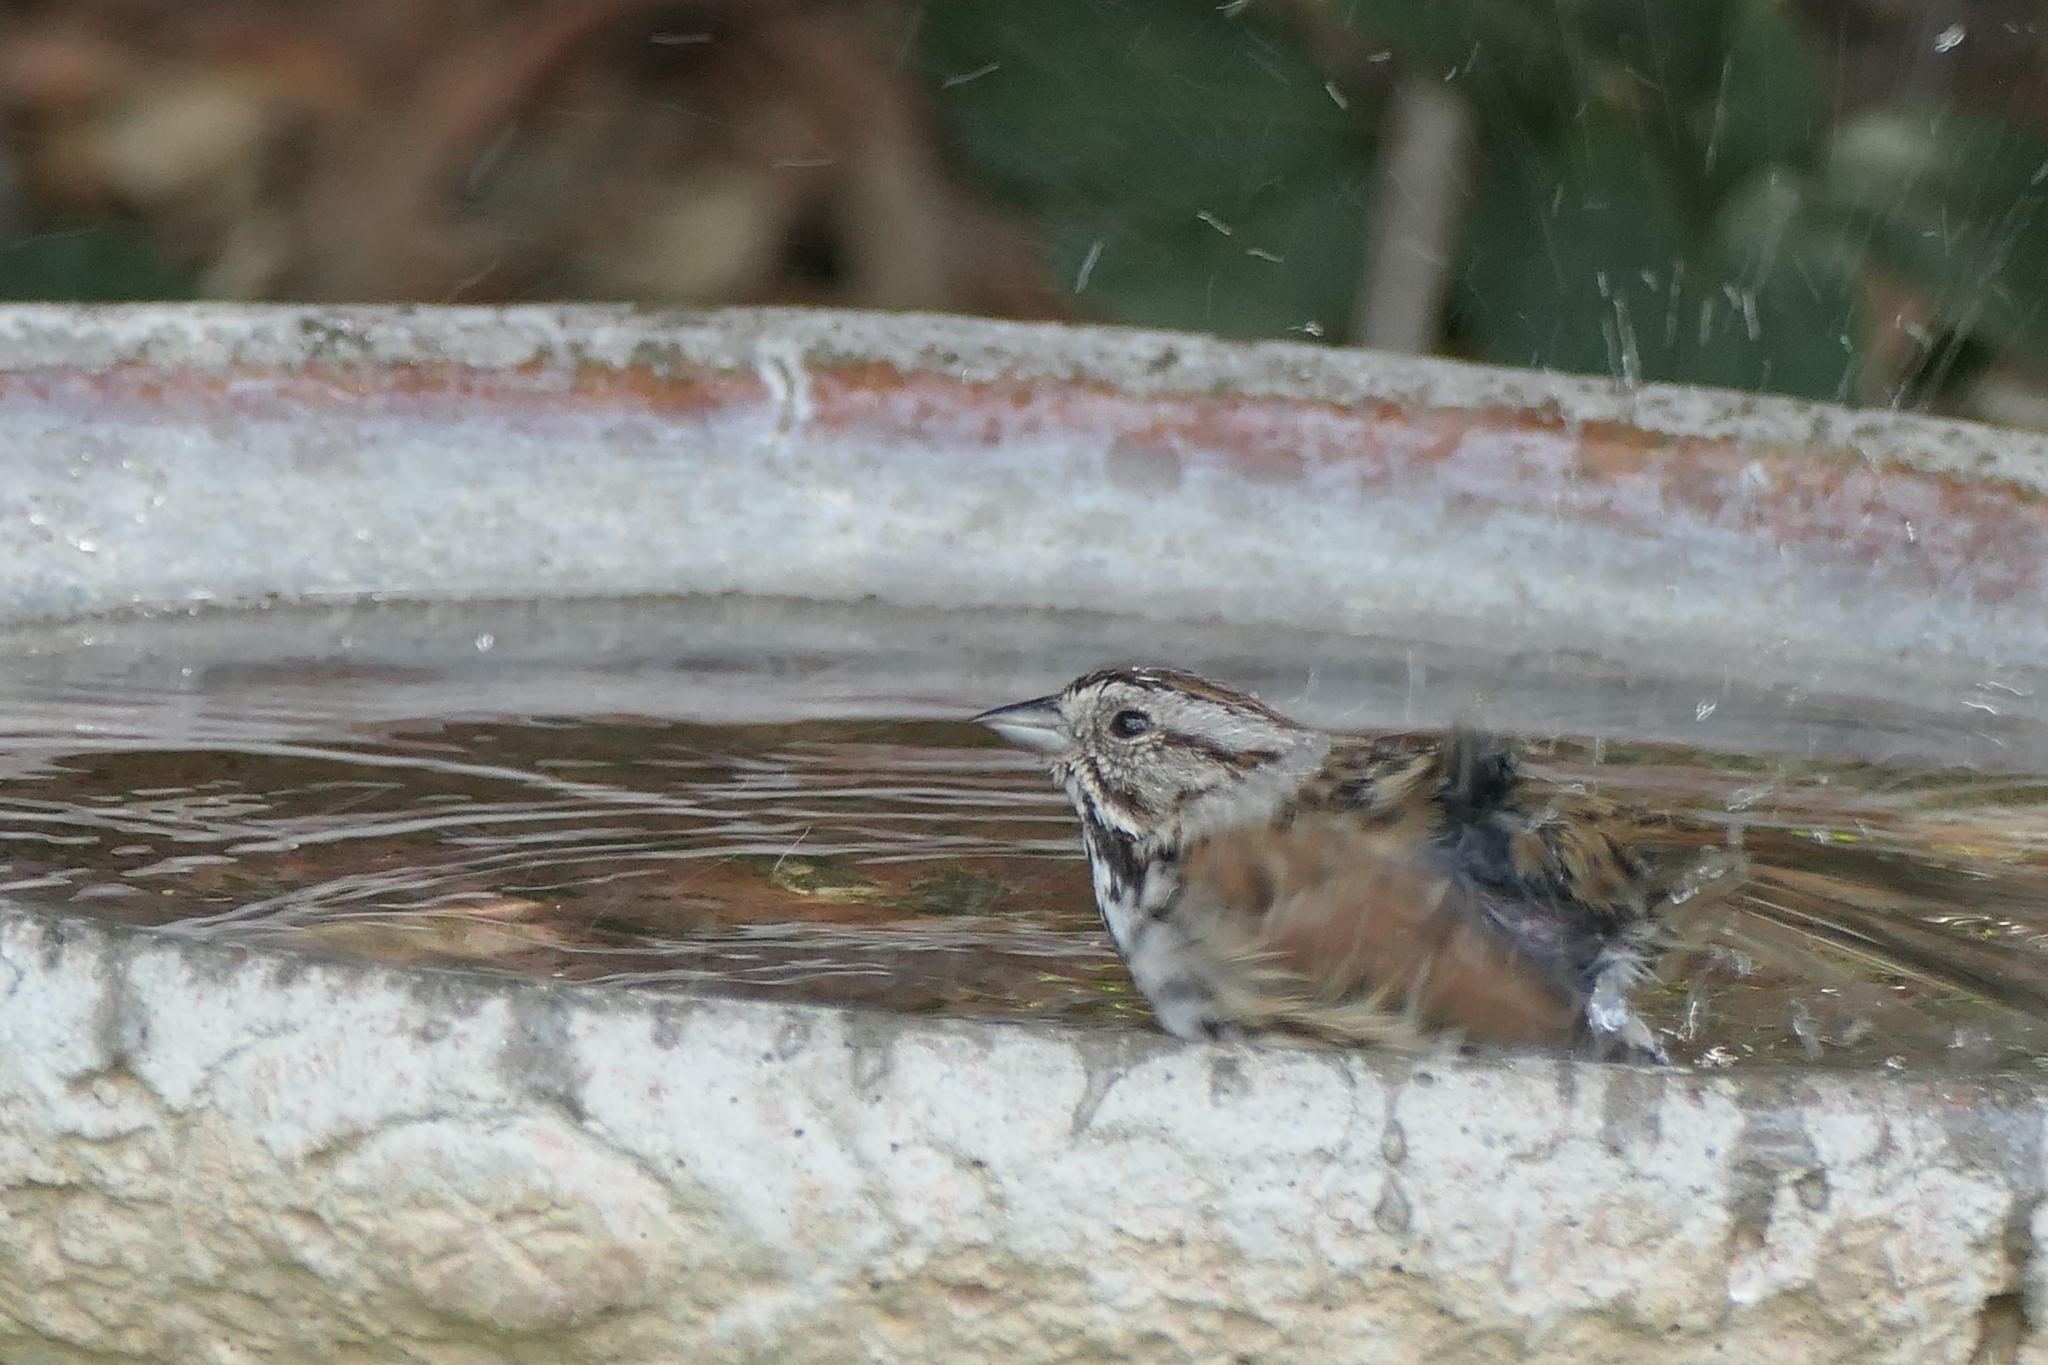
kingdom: Animalia
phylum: Chordata
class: Aves
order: Passeriformes
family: Passerellidae
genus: Melospiza
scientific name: Melospiza melodia
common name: Song sparrow
